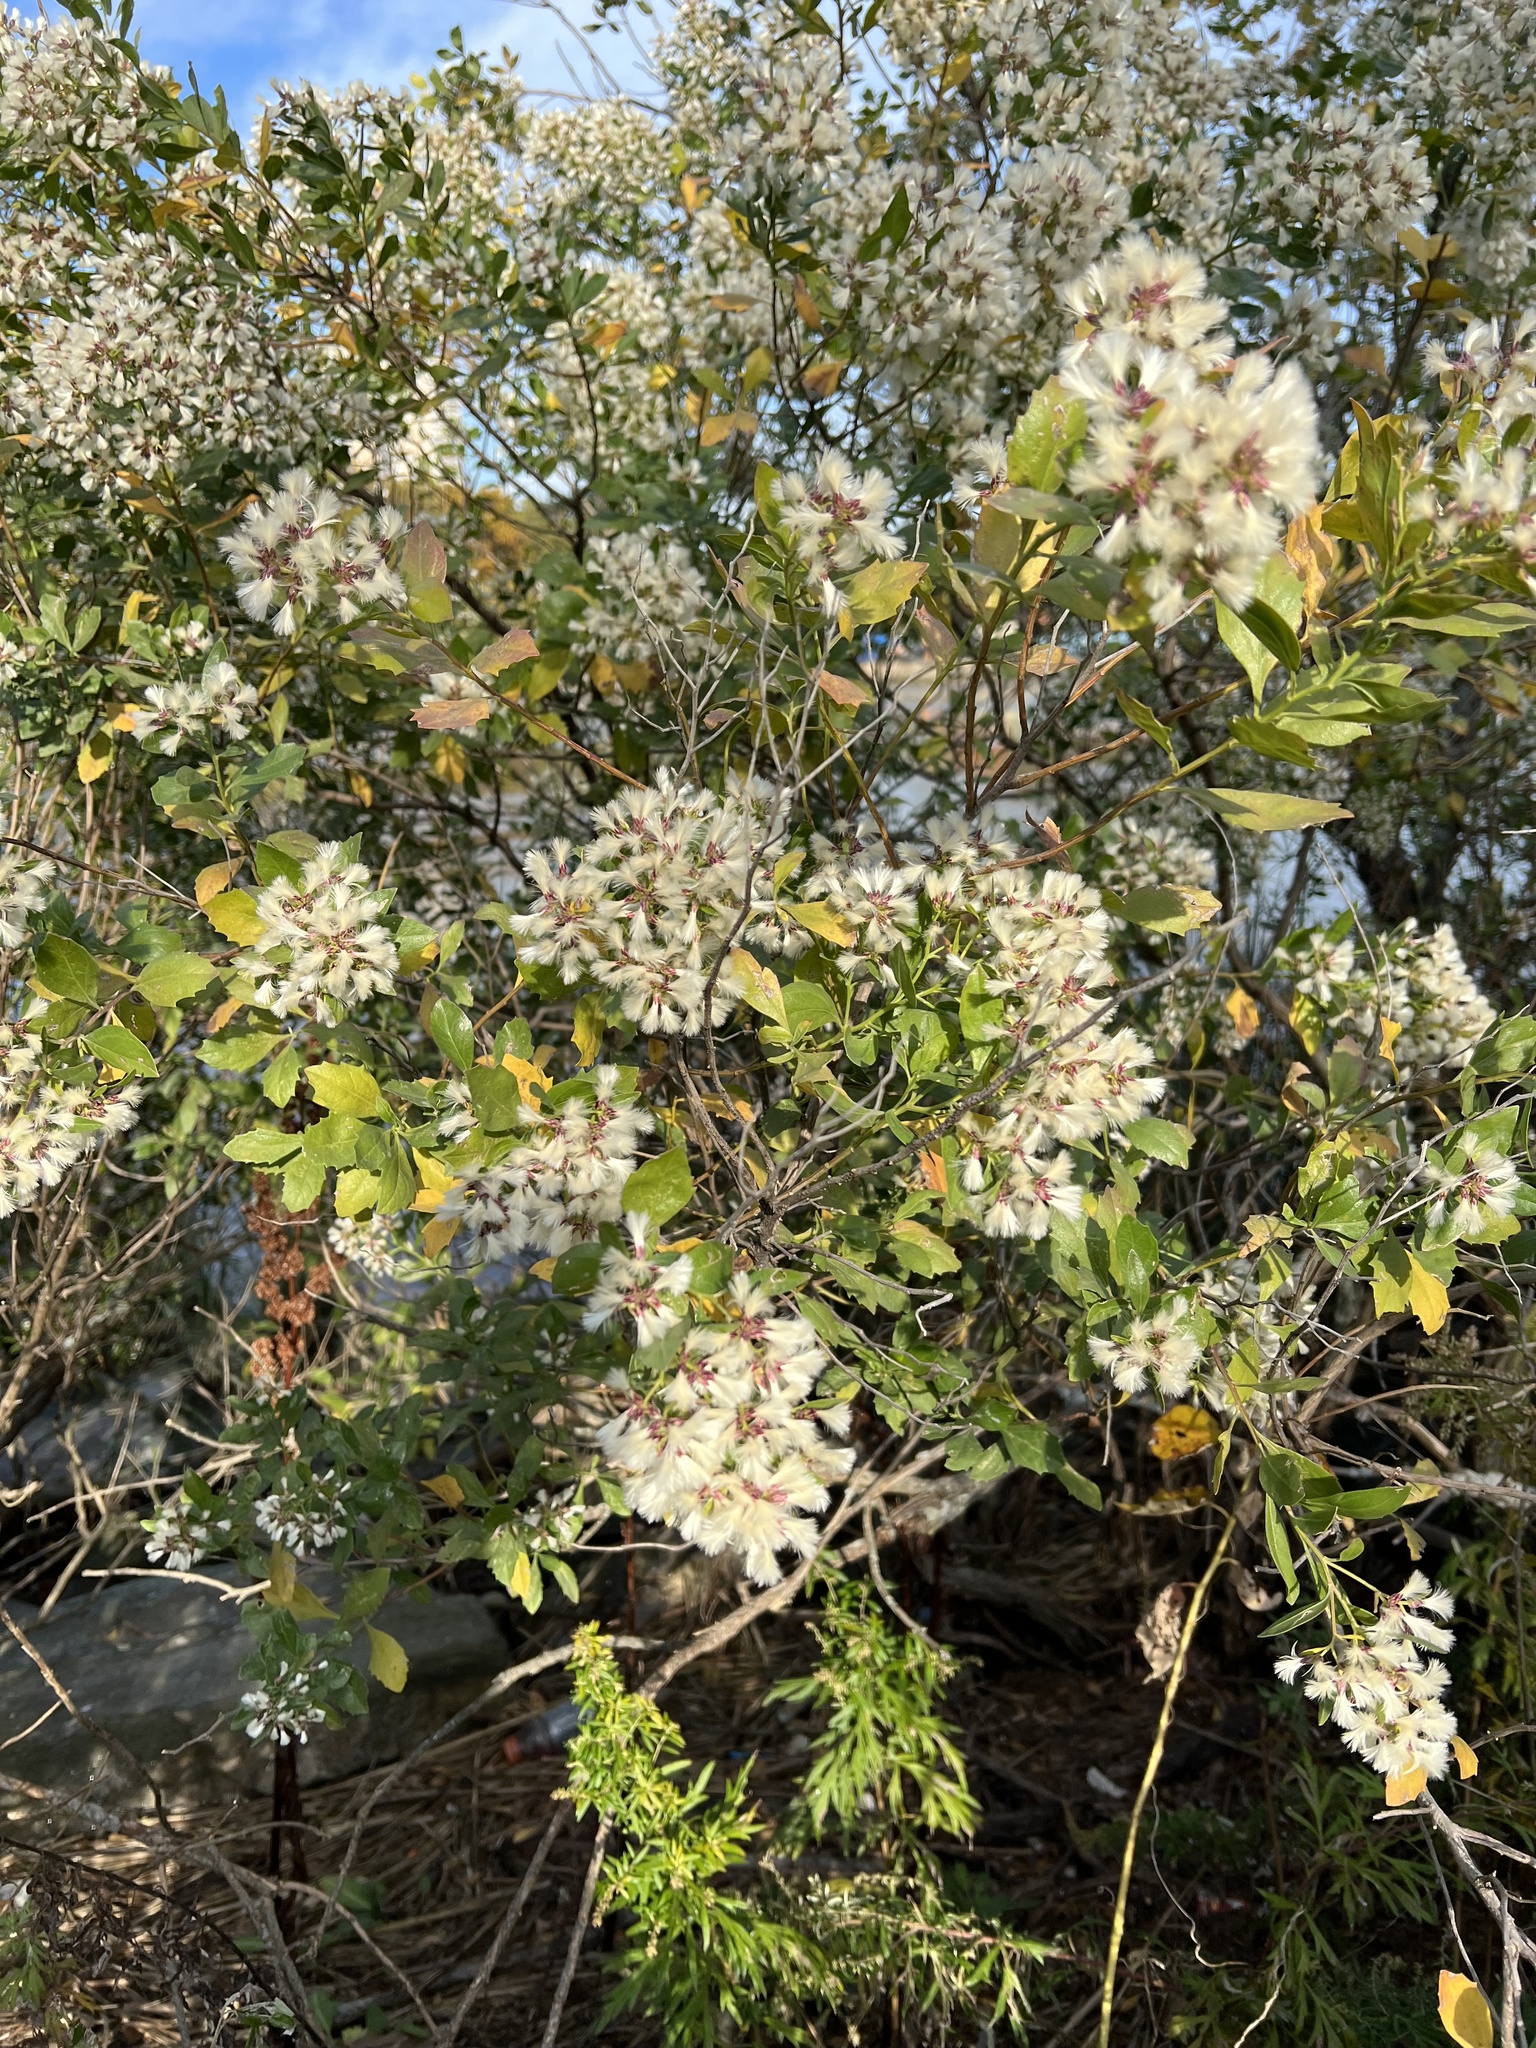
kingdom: Plantae
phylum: Tracheophyta
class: Magnoliopsida
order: Asterales
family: Asteraceae
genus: Baccharis
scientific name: Baccharis halimifolia
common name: Eastern baccharis
